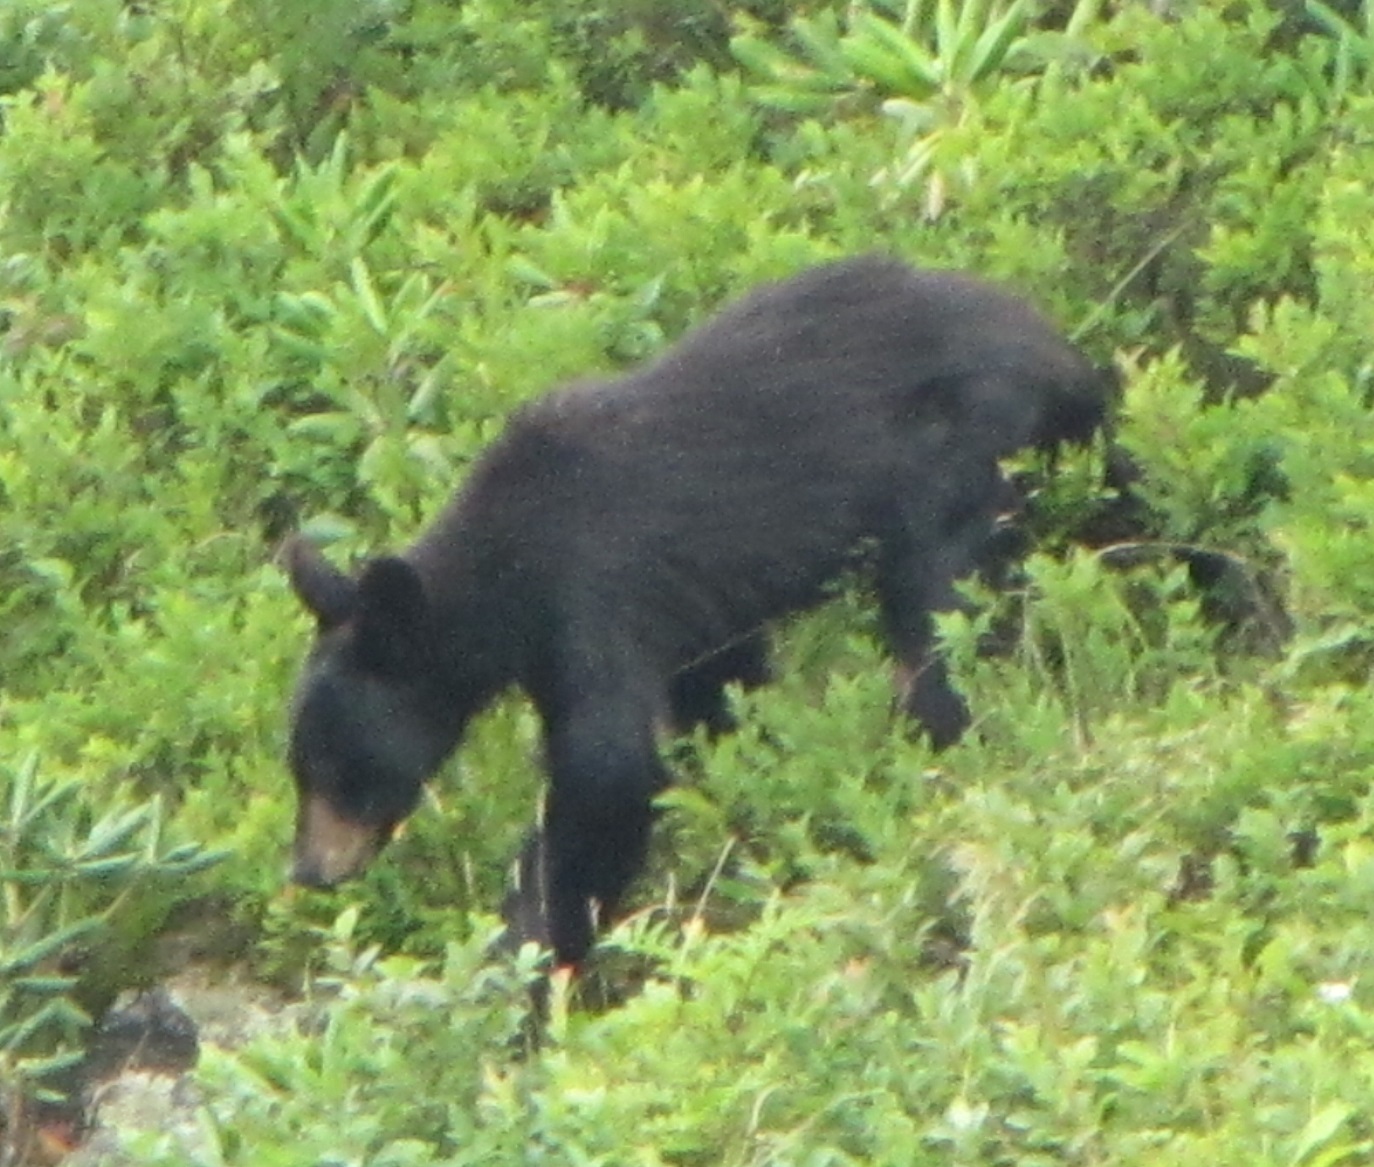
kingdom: Animalia
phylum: Chordata
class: Mammalia
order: Carnivora
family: Ursidae
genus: Ursus
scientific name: Ursus americanus
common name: American black bear
